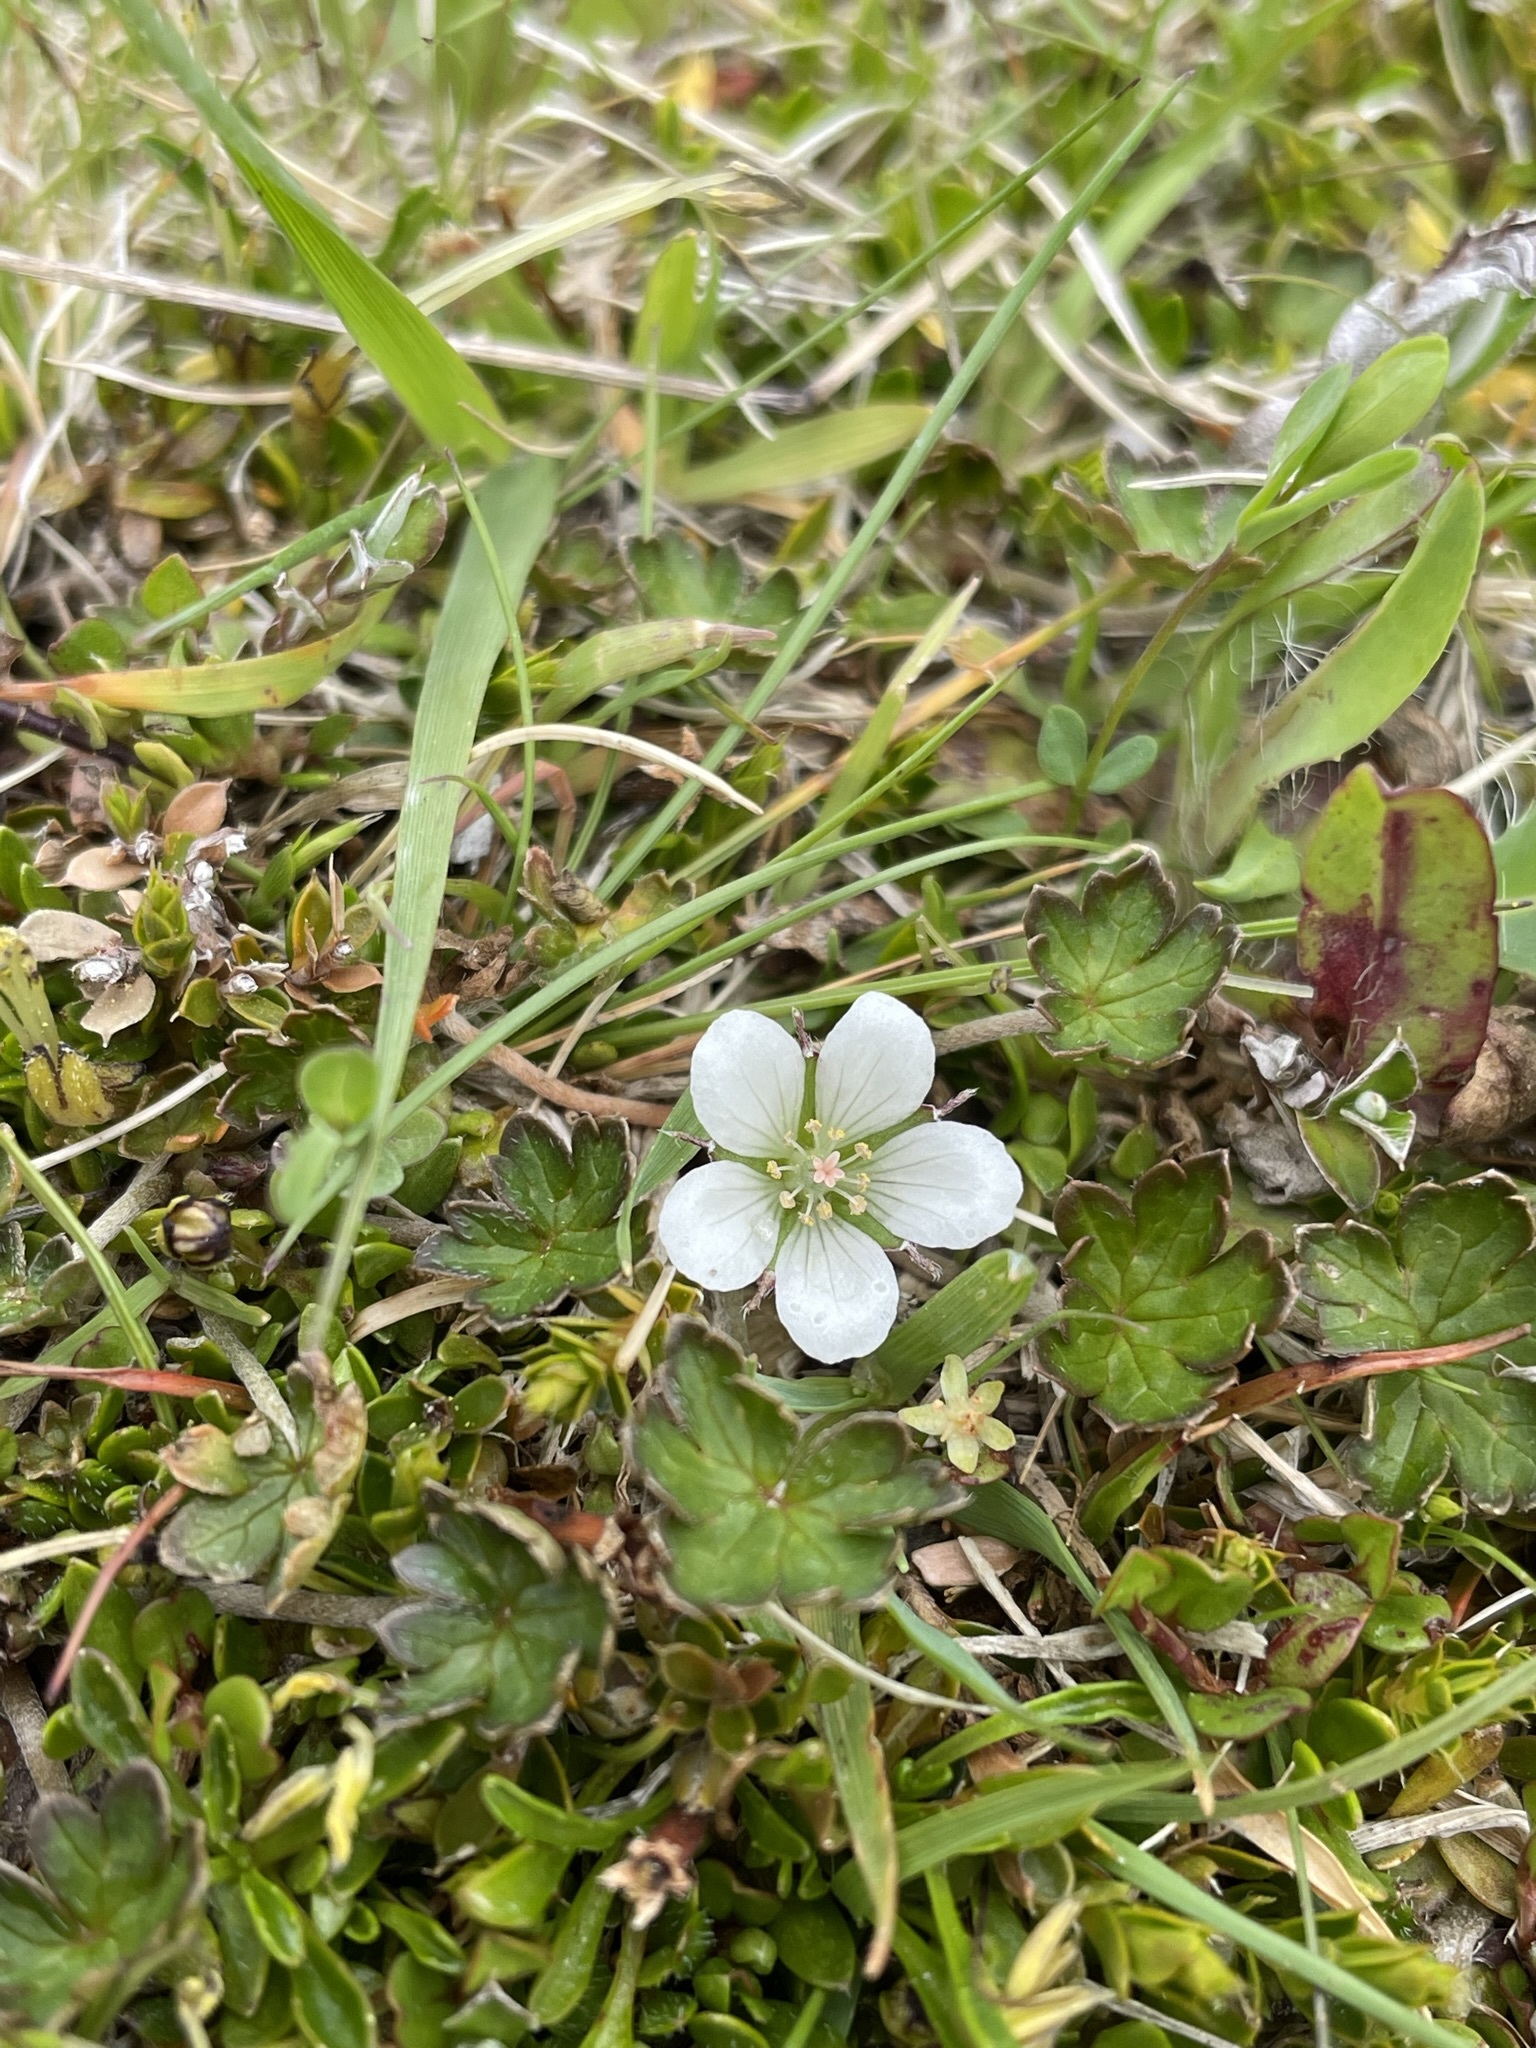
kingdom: Plantae
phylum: Tracheophyta
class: Magnoliopsida
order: Geraniales
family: Geraniaceae
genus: Geranium
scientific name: Geranium brevicaule
